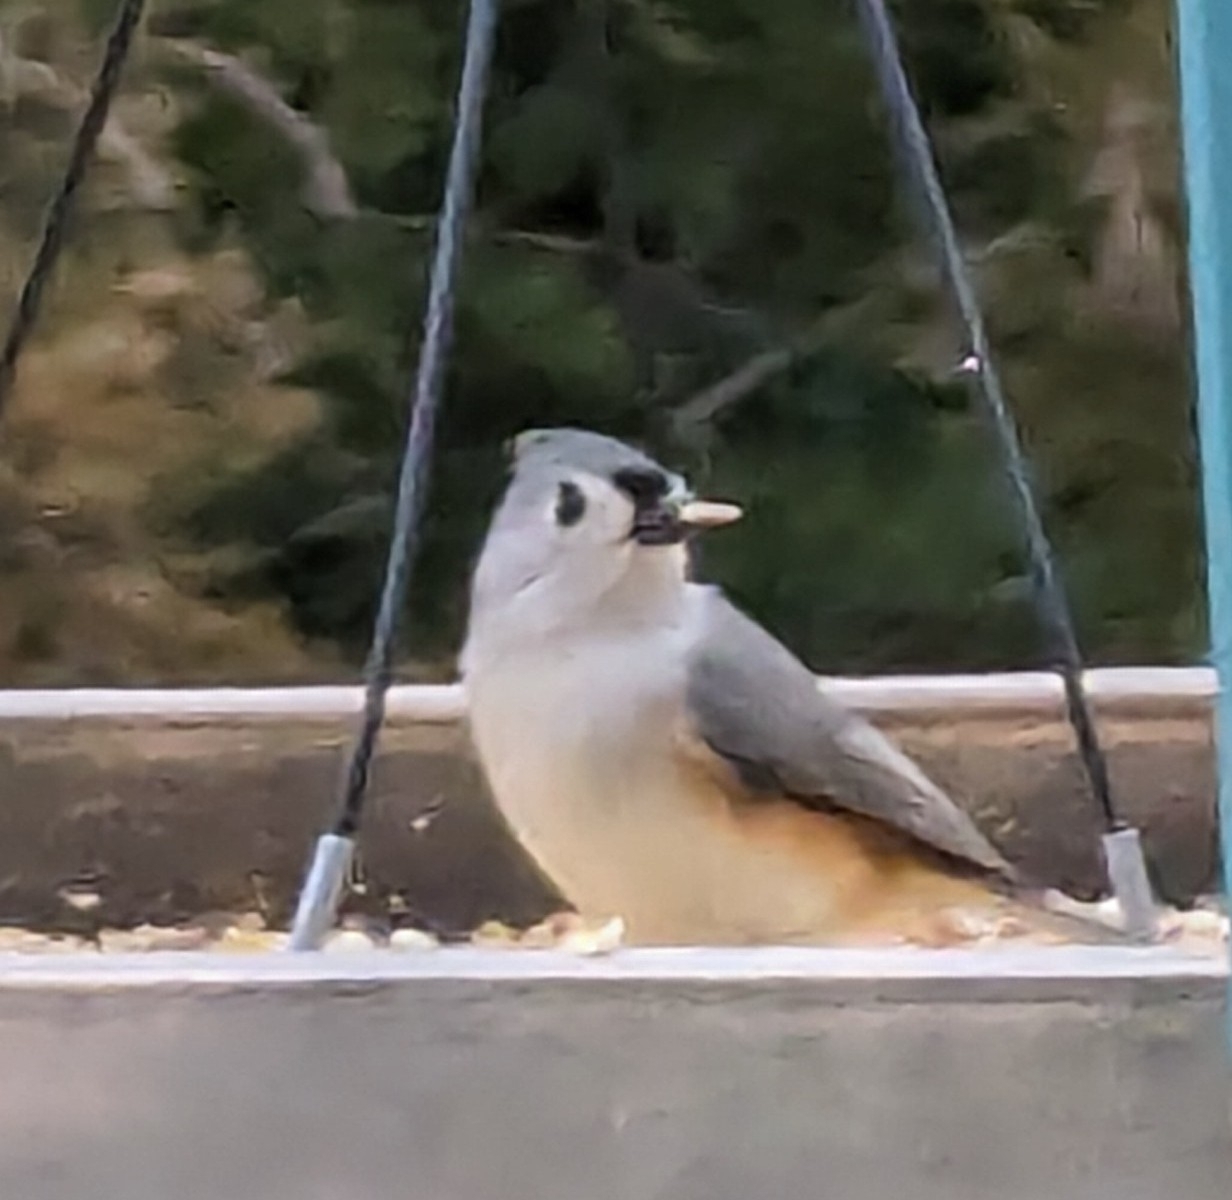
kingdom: Animalia
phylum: Chordata
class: Aves
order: Passeriformes
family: Paridae
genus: Baeolophus
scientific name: Baeolophus bicolor
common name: Tufted titmouse
